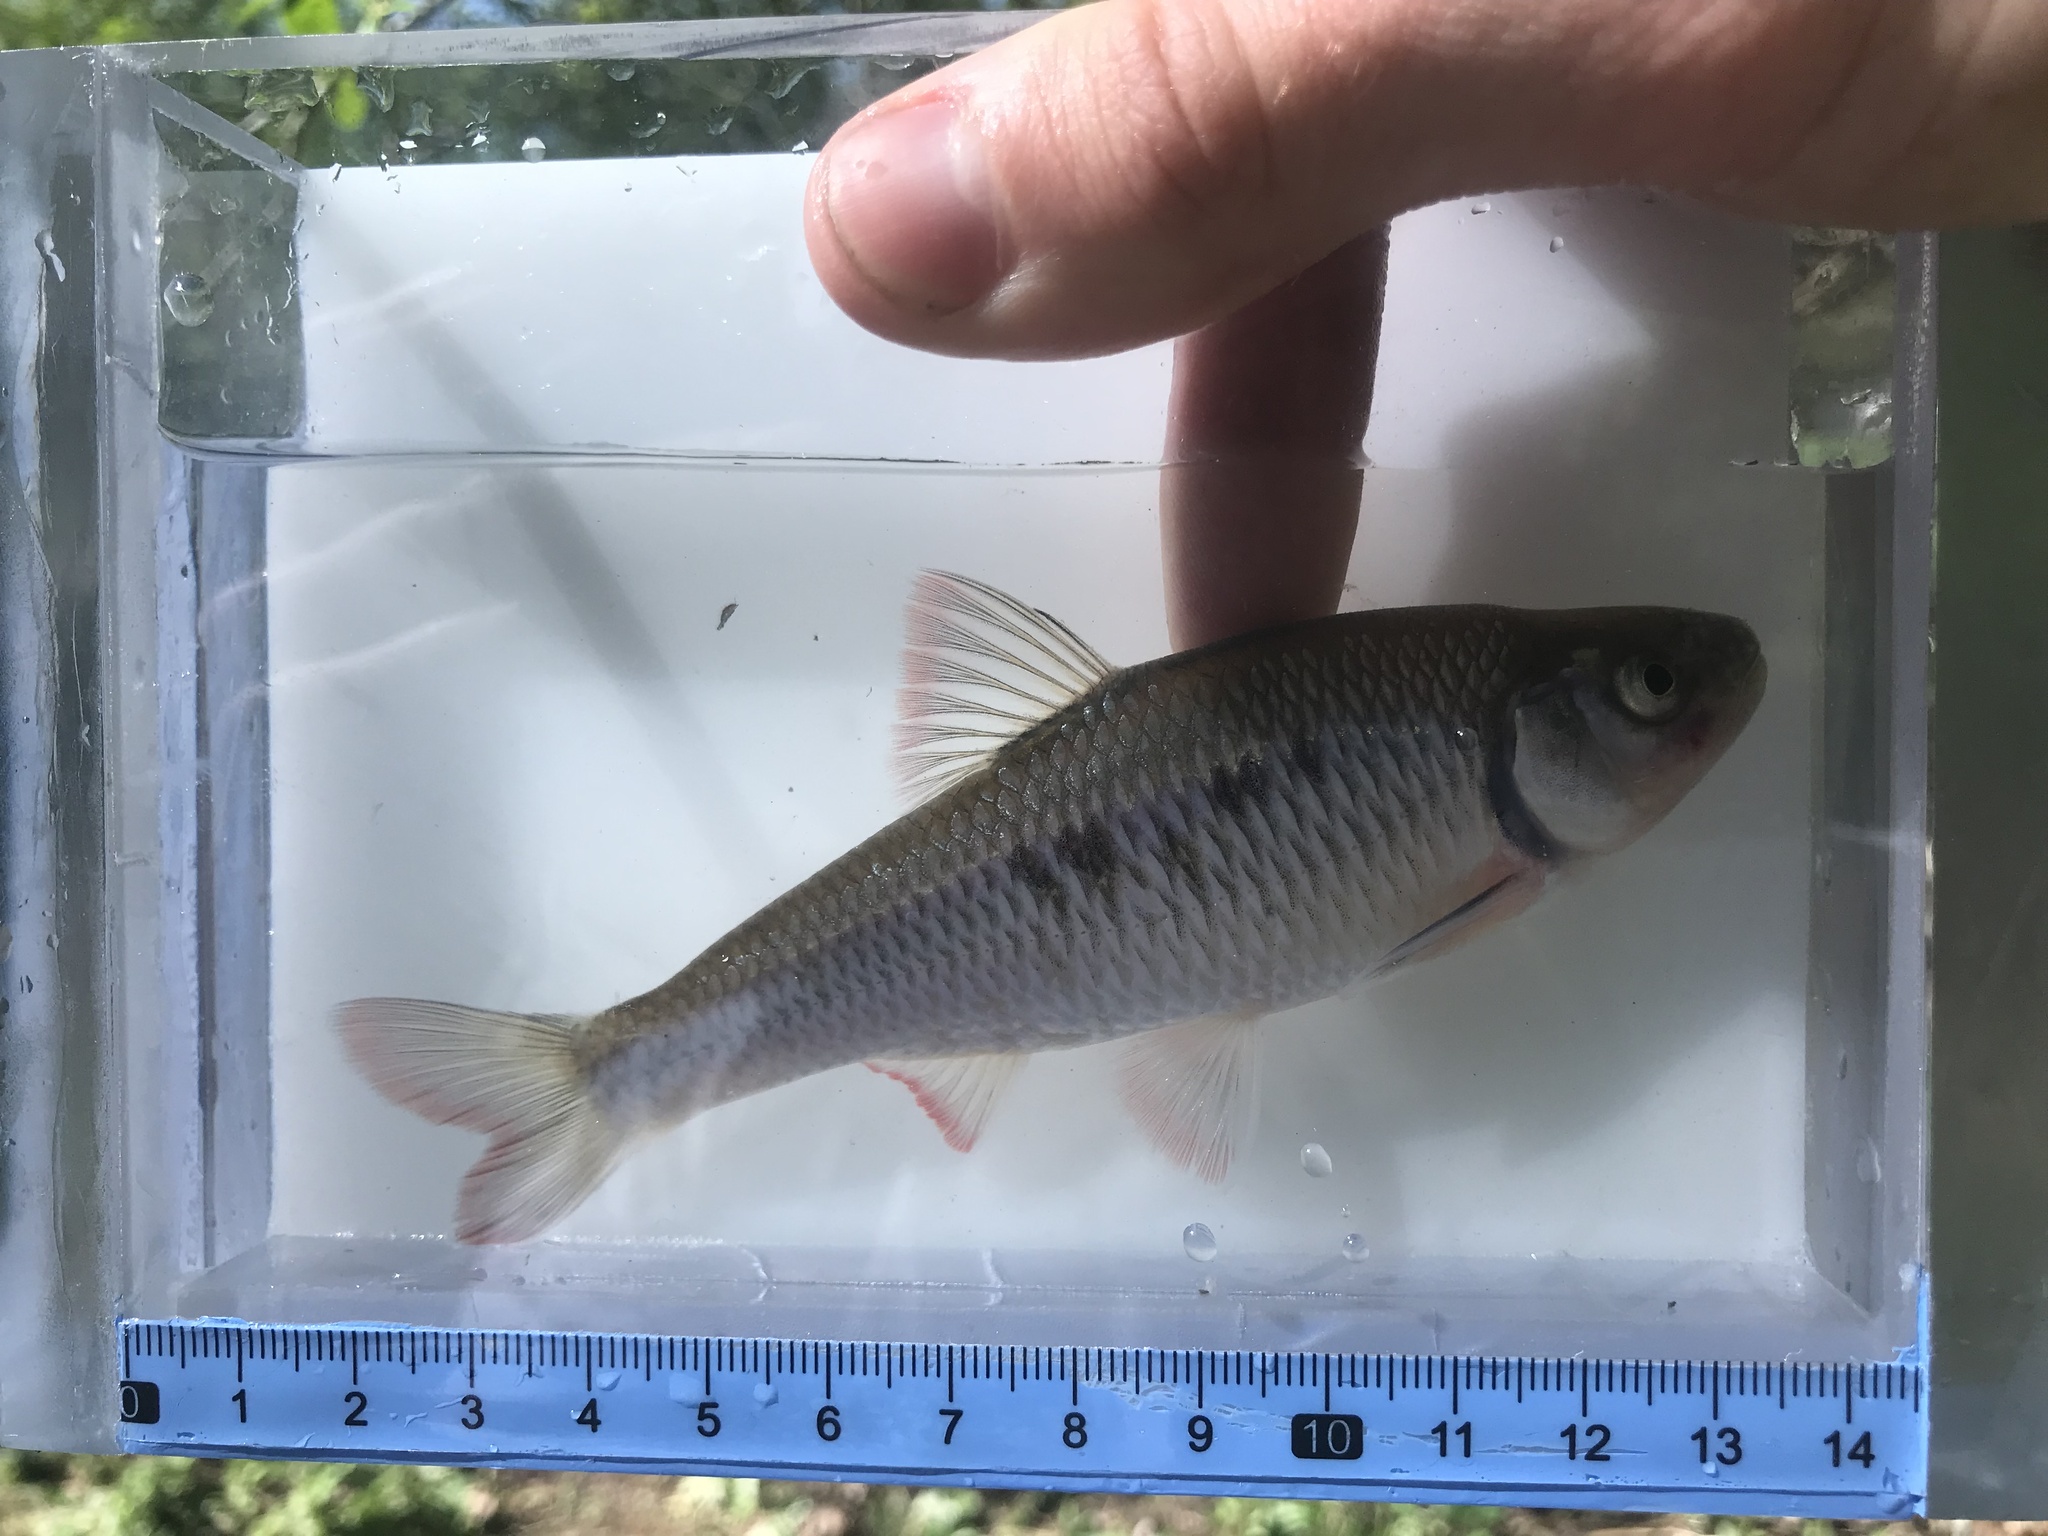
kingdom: Animalia
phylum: Chordata
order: Cypriniformes
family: Cyprinidae
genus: Luxilus
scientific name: Luxilus albeolus
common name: White shiner
